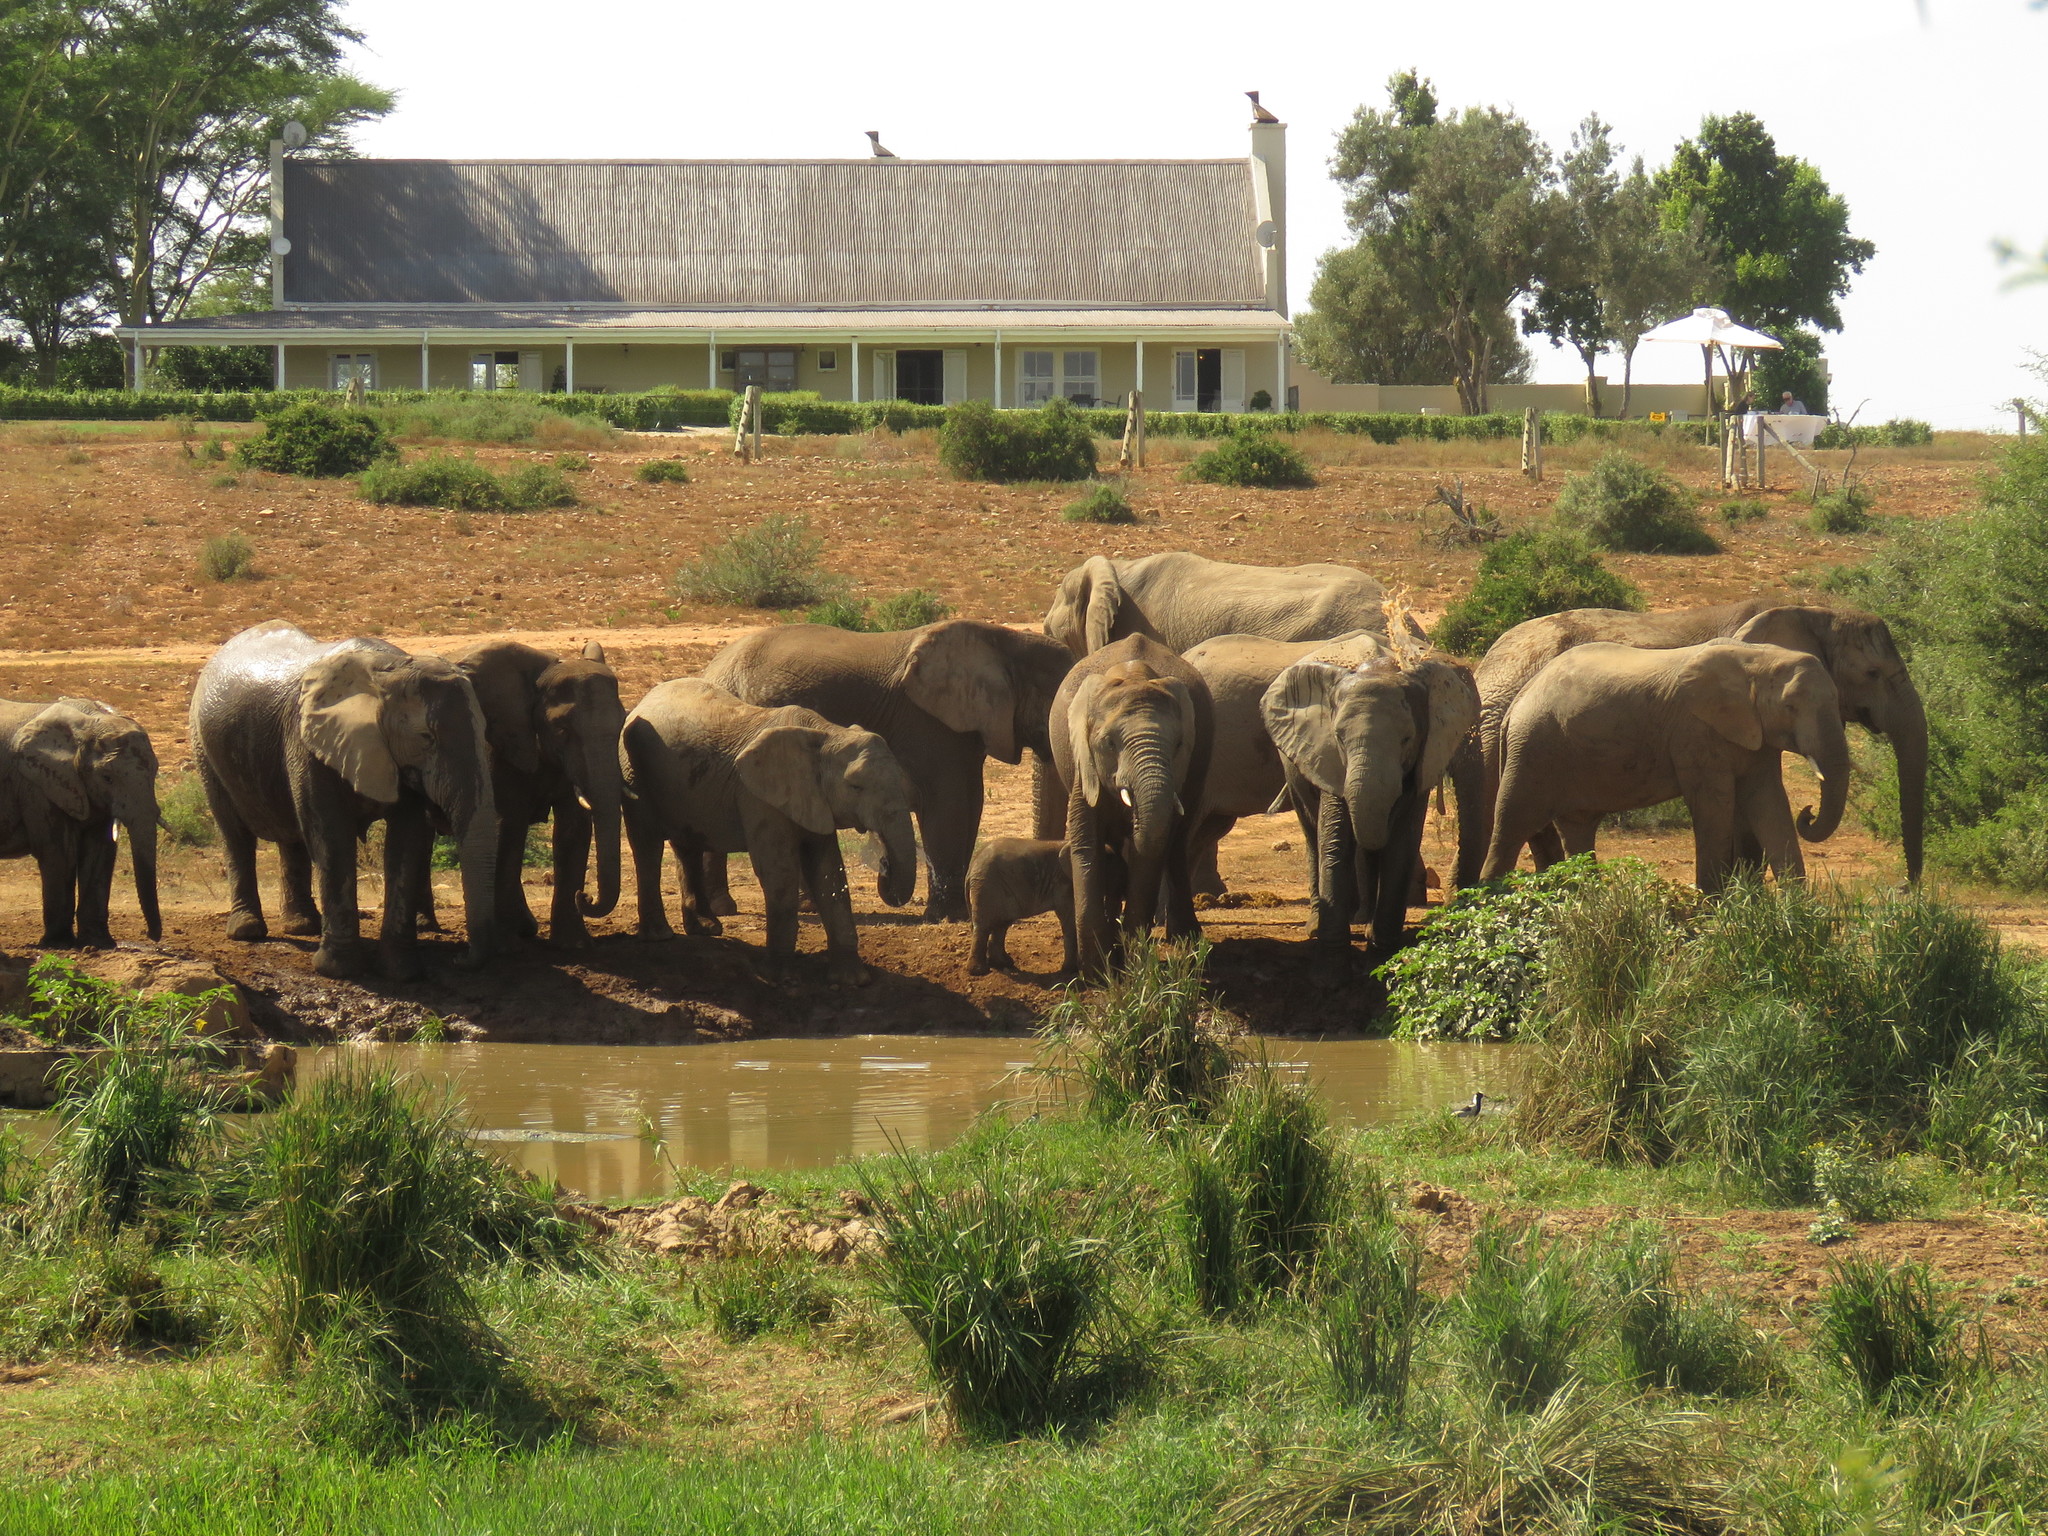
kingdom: Animalia
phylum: Chordata
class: Mammalia
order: Proboscidea
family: Elephantidae
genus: Loxodonta
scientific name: Loxodonta africana
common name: African elephant
